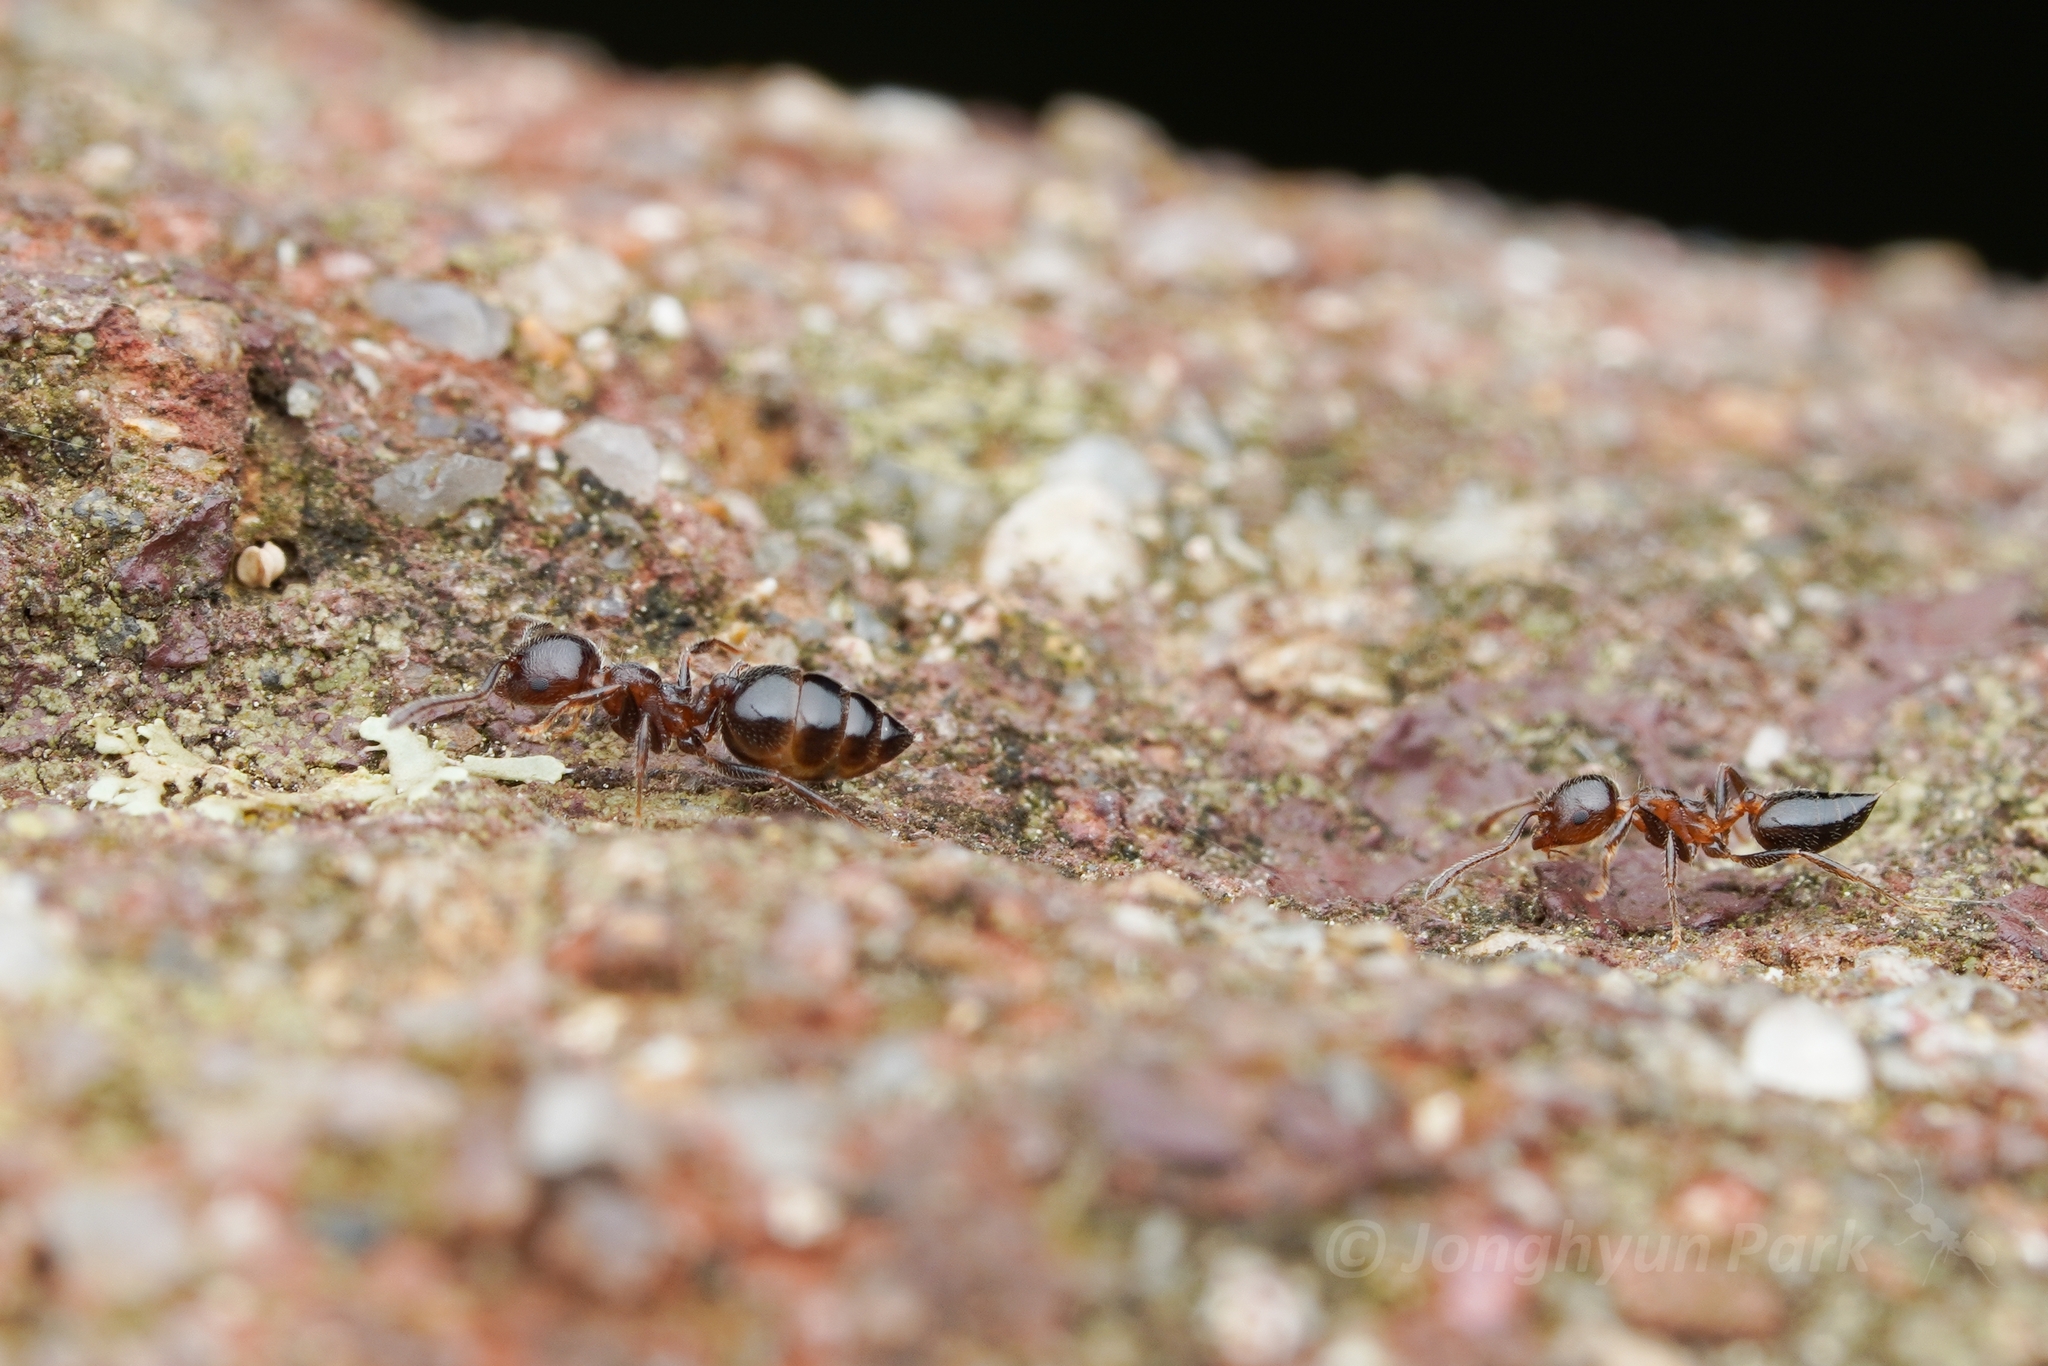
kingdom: Animalia
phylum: Arthropoda
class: Insecta
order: Hymenoptera
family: Formicidae
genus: Crematogaster
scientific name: Crematogaster matsumurai
